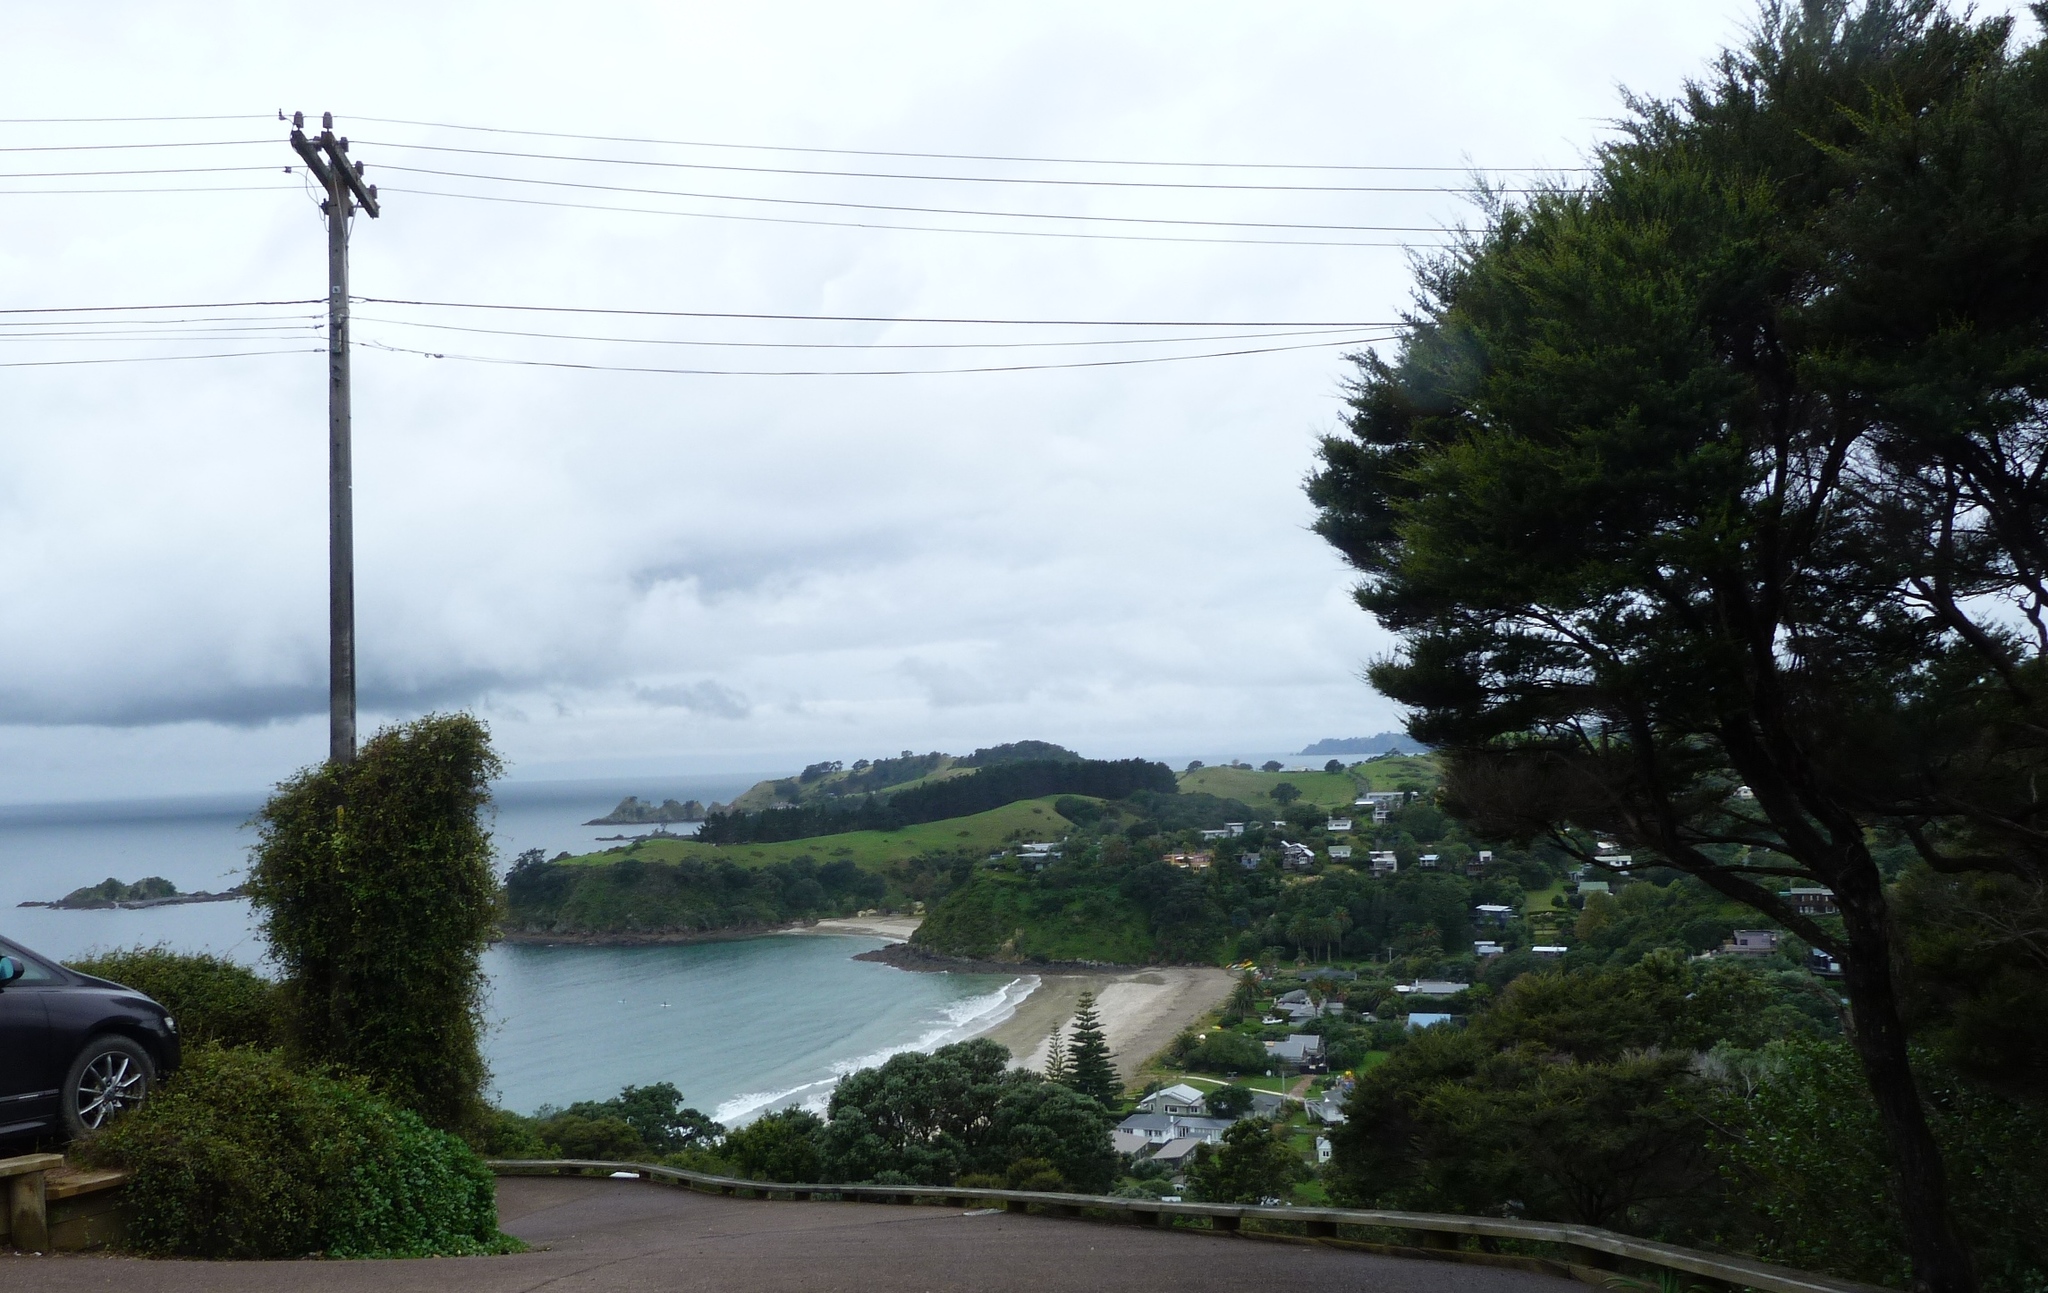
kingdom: Plantae
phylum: Tracheophyta
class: Magnoliopsida
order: Myrtales
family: Myrtaceae
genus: Kunzea
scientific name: Kunzea robusta
